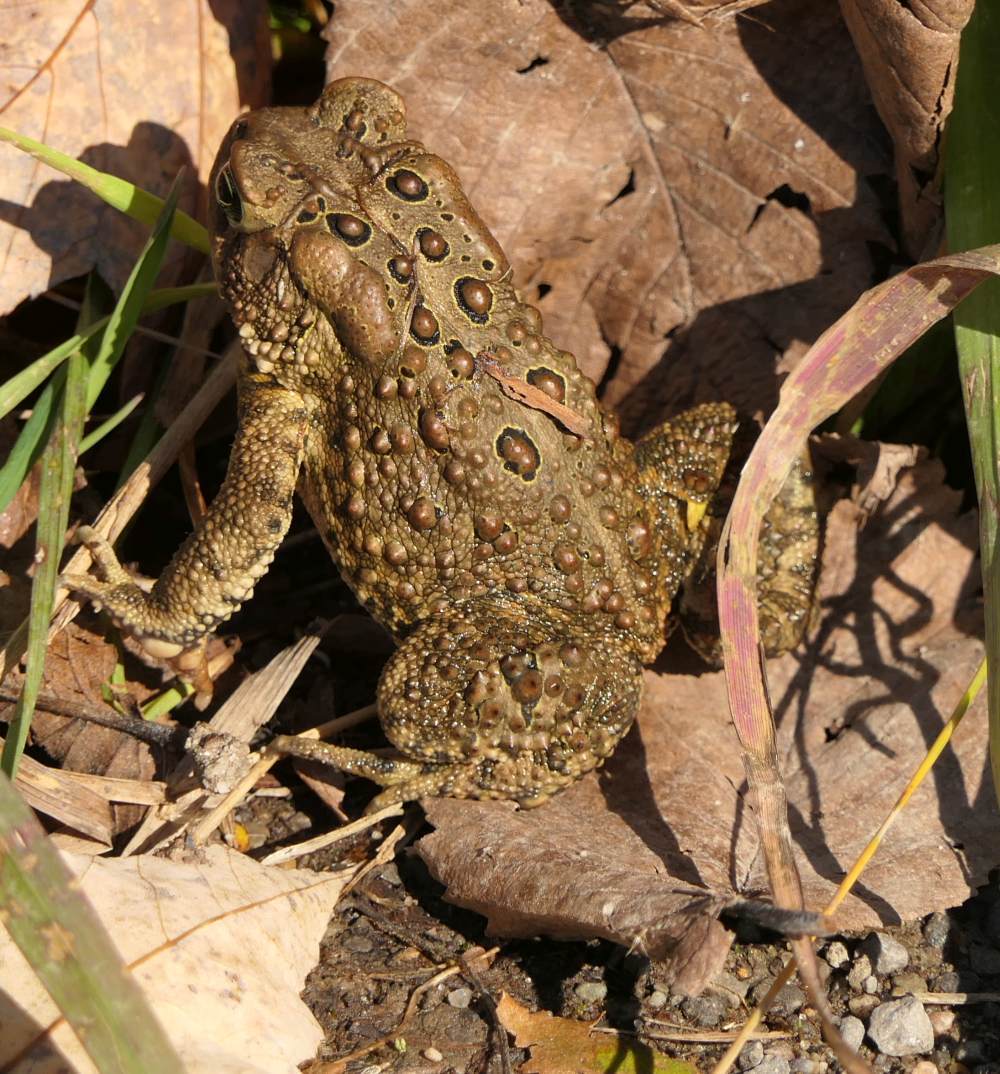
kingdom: Animalia
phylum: Chordata
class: Amphibia
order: Anura
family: Bufonidae
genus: Anaxyrus
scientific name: Anaxyrus americanus
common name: American toad
